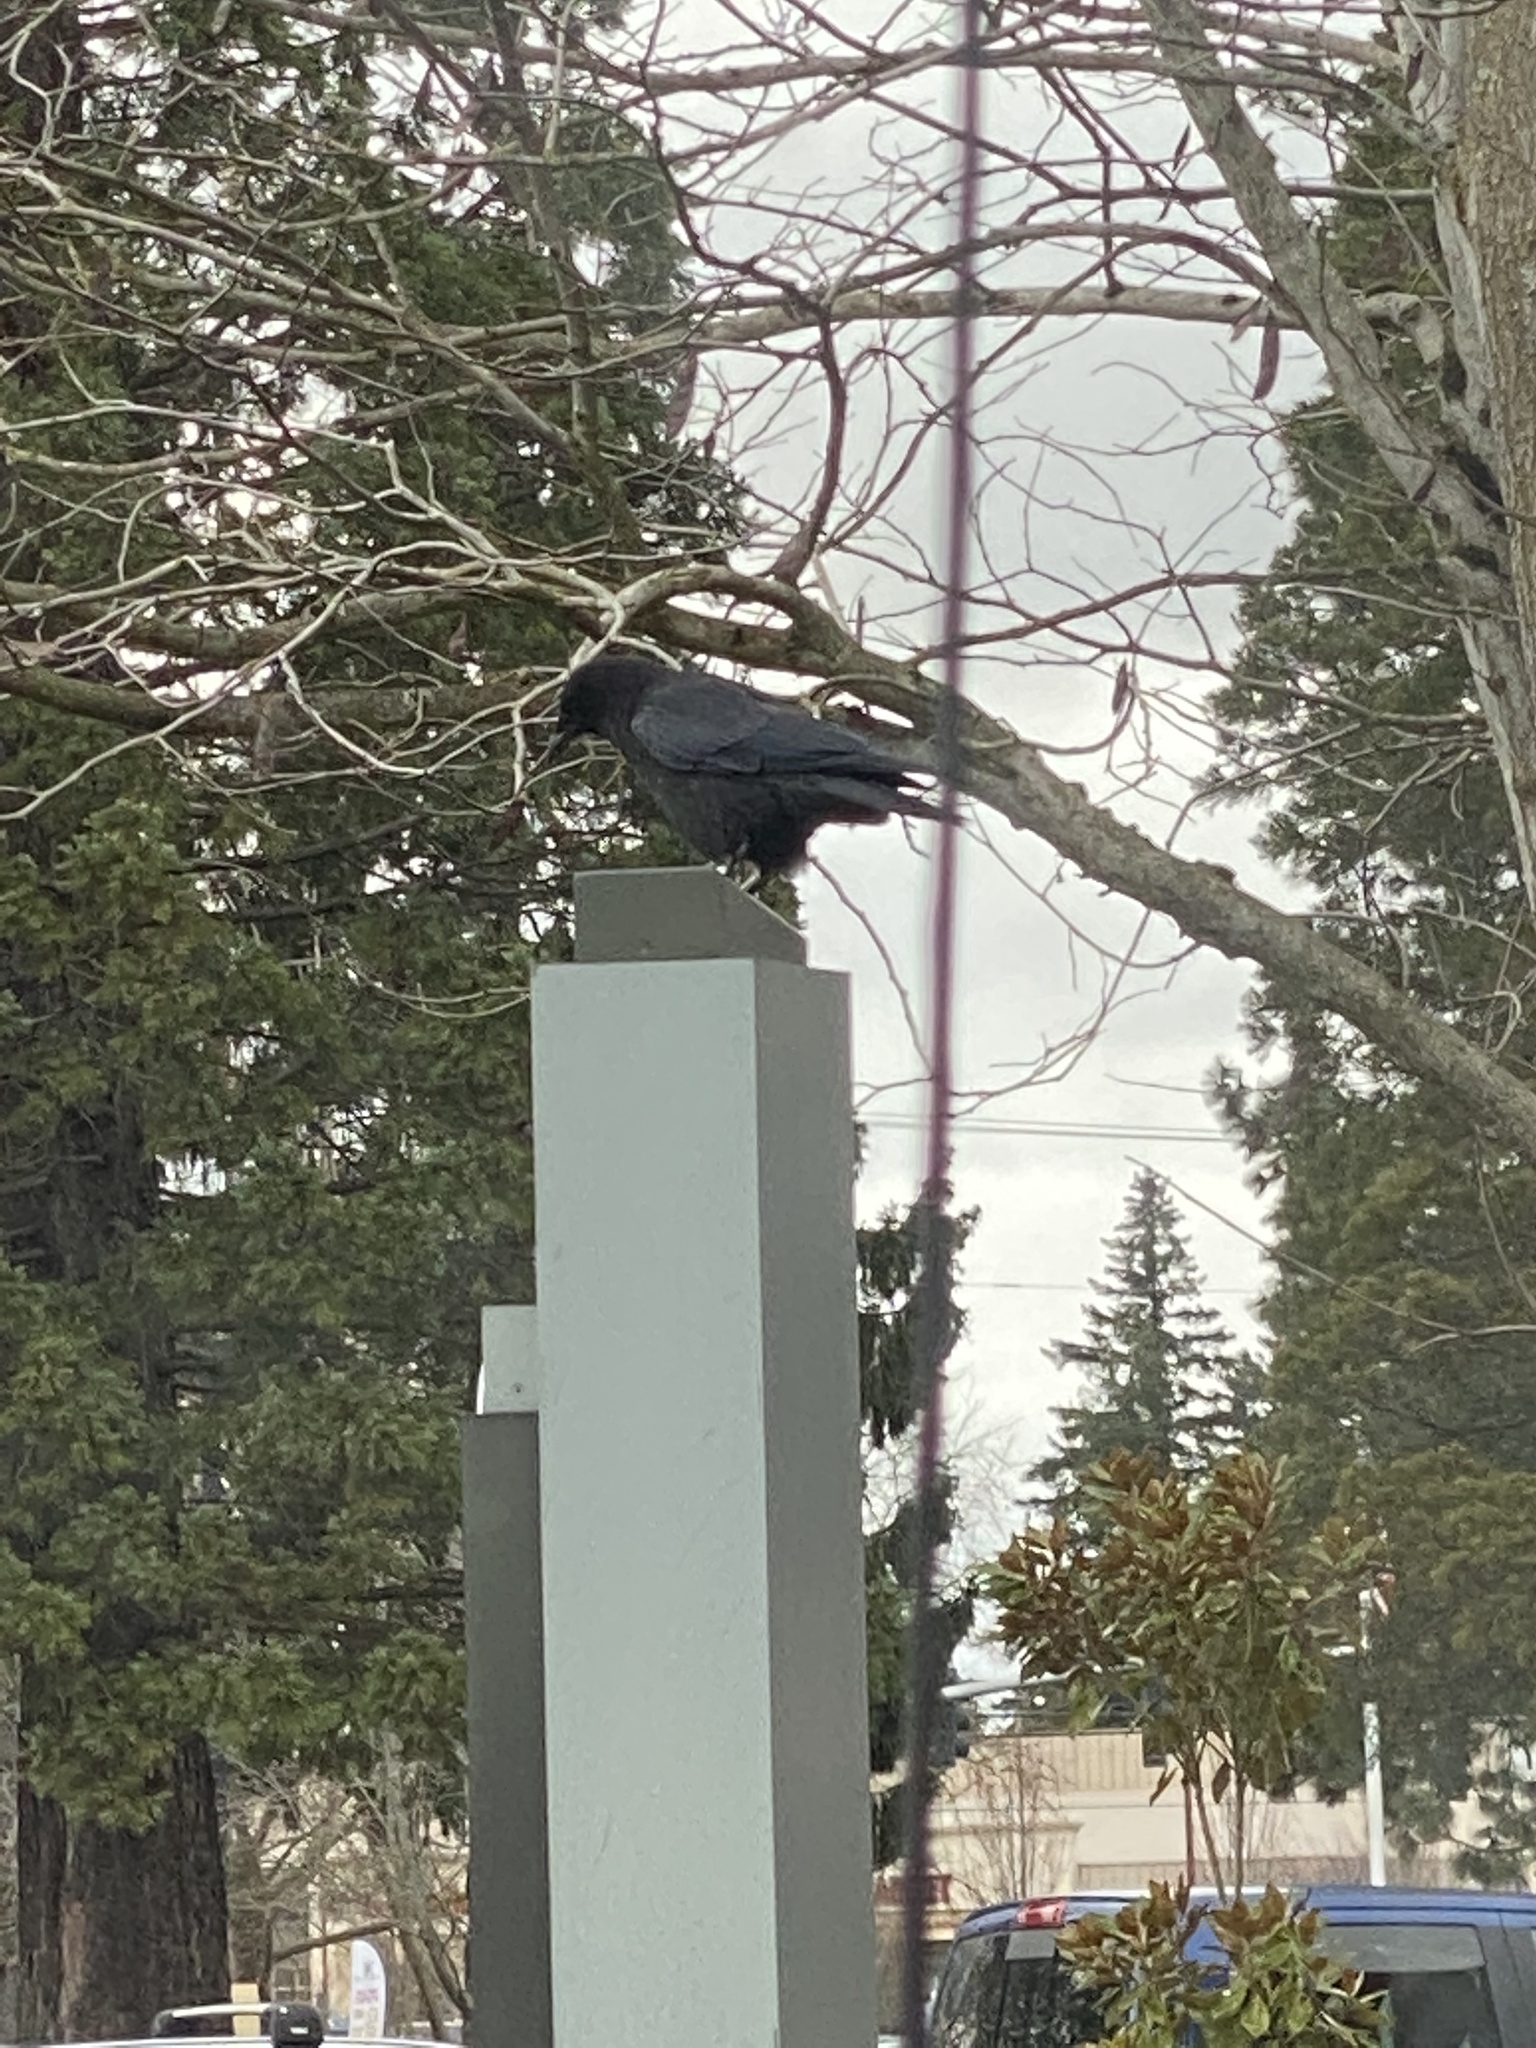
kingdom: Animalia
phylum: Chordata
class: Aves
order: Passeriformes
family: Corvidae
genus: Corvus
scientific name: Corvus brachyrhynchos
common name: American crow
